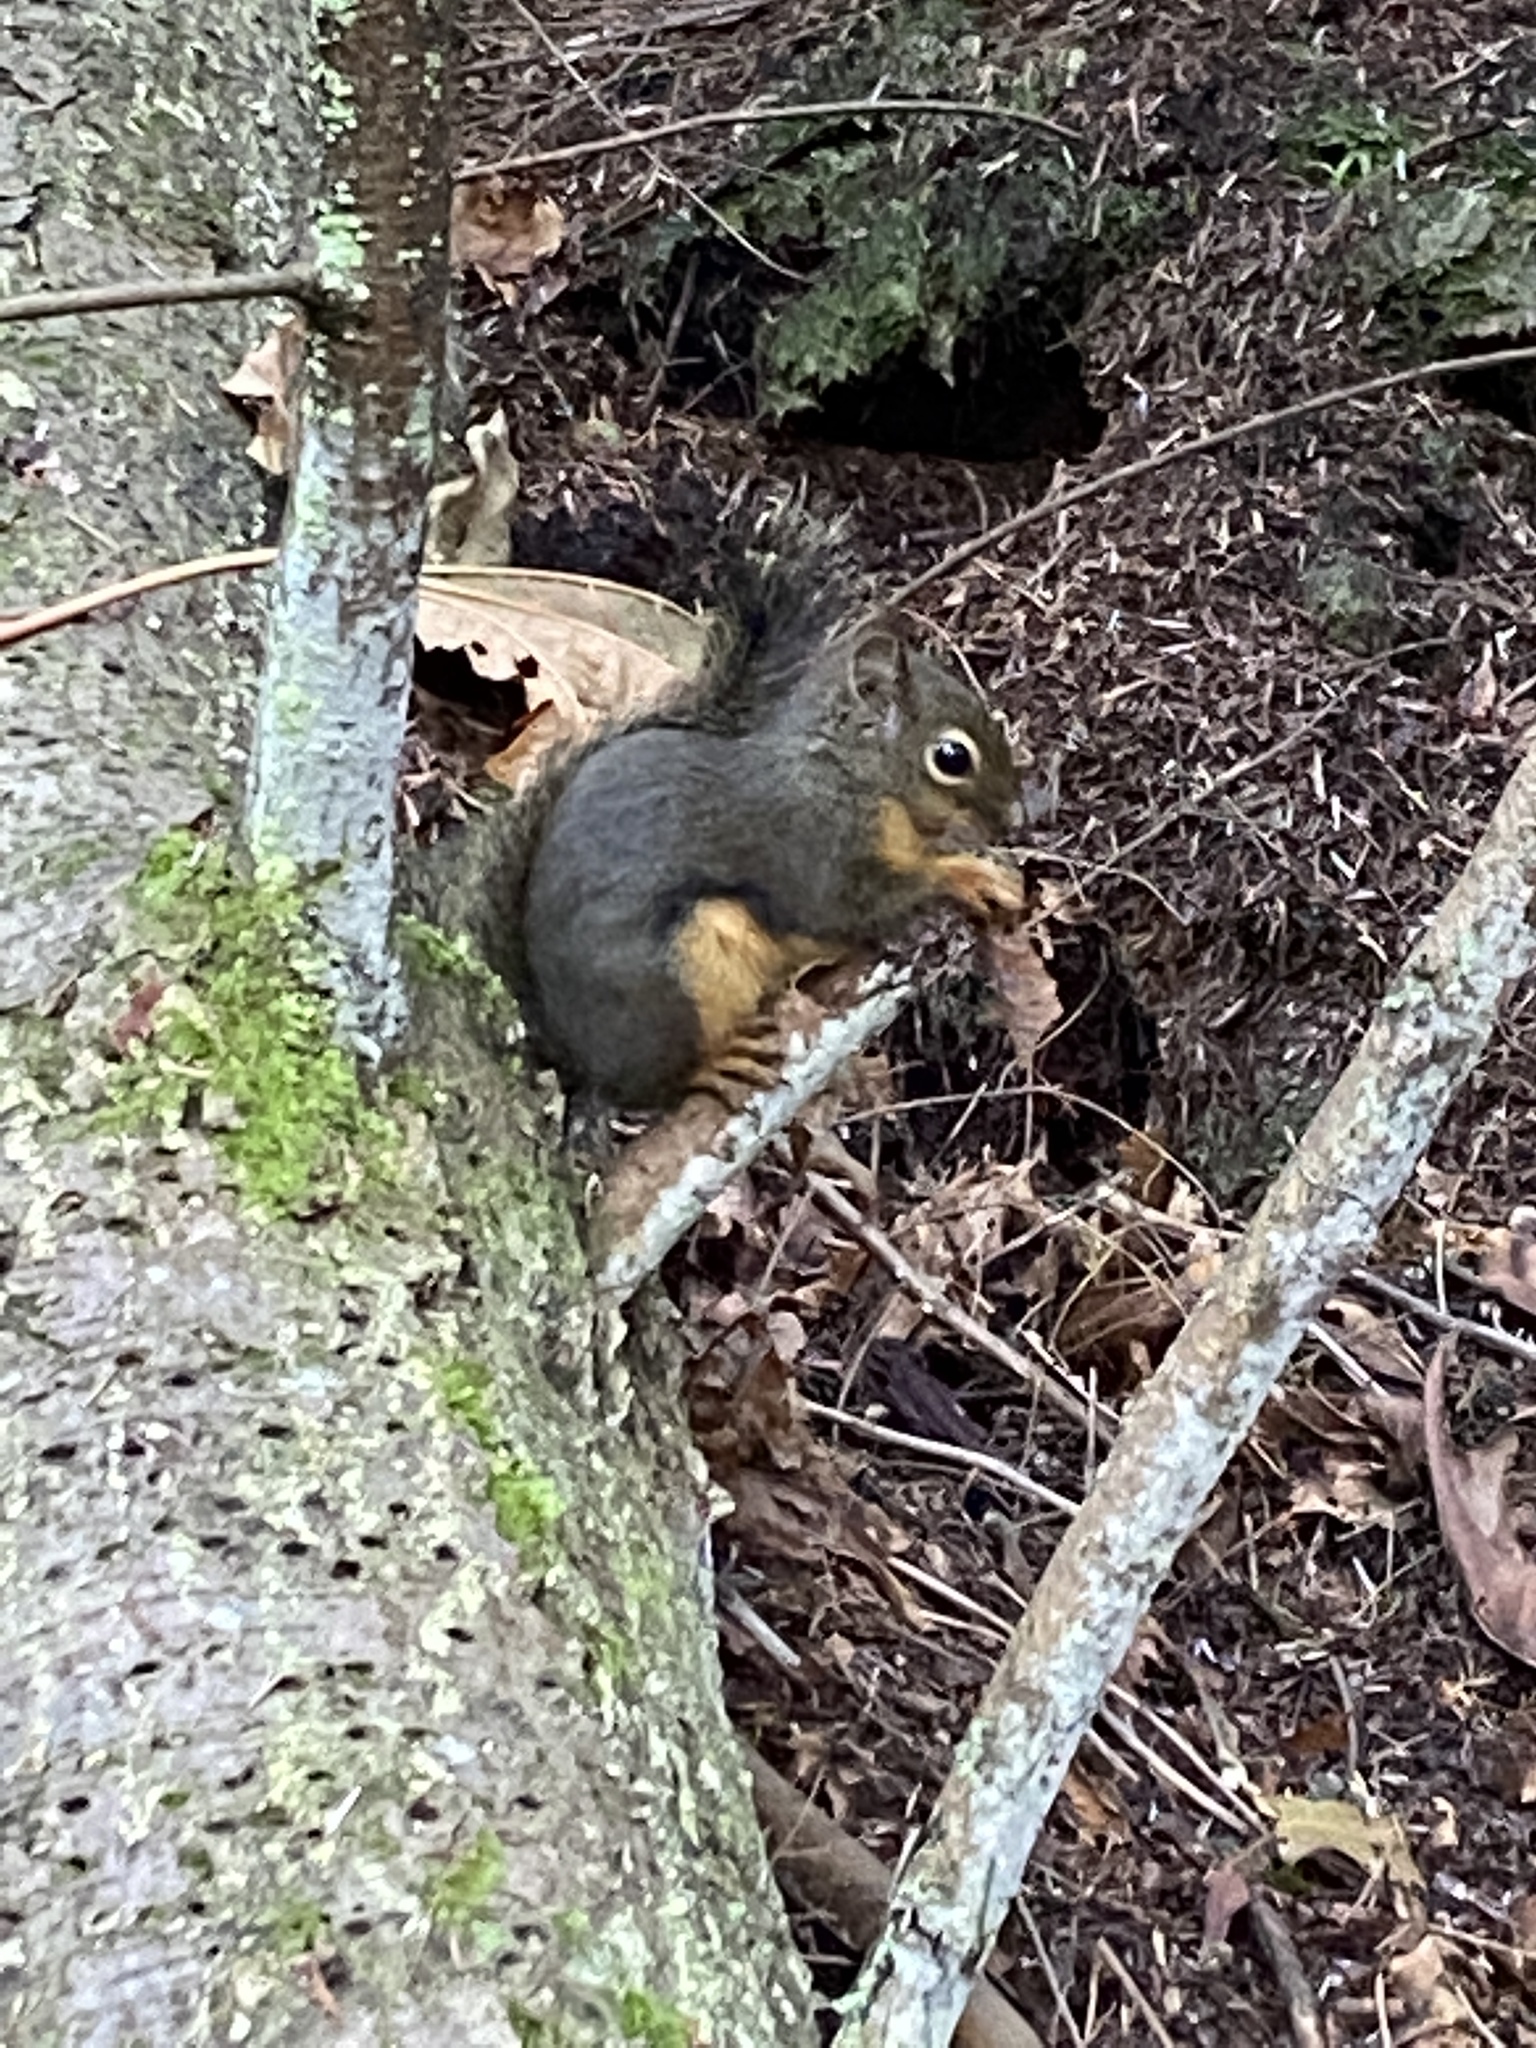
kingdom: Animalia
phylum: Chordata
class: Mammalia
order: Rodentia
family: Sciuridae
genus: Tamiasciurus
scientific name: Tamiasciurus douglasii
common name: Douglas's squirrel
